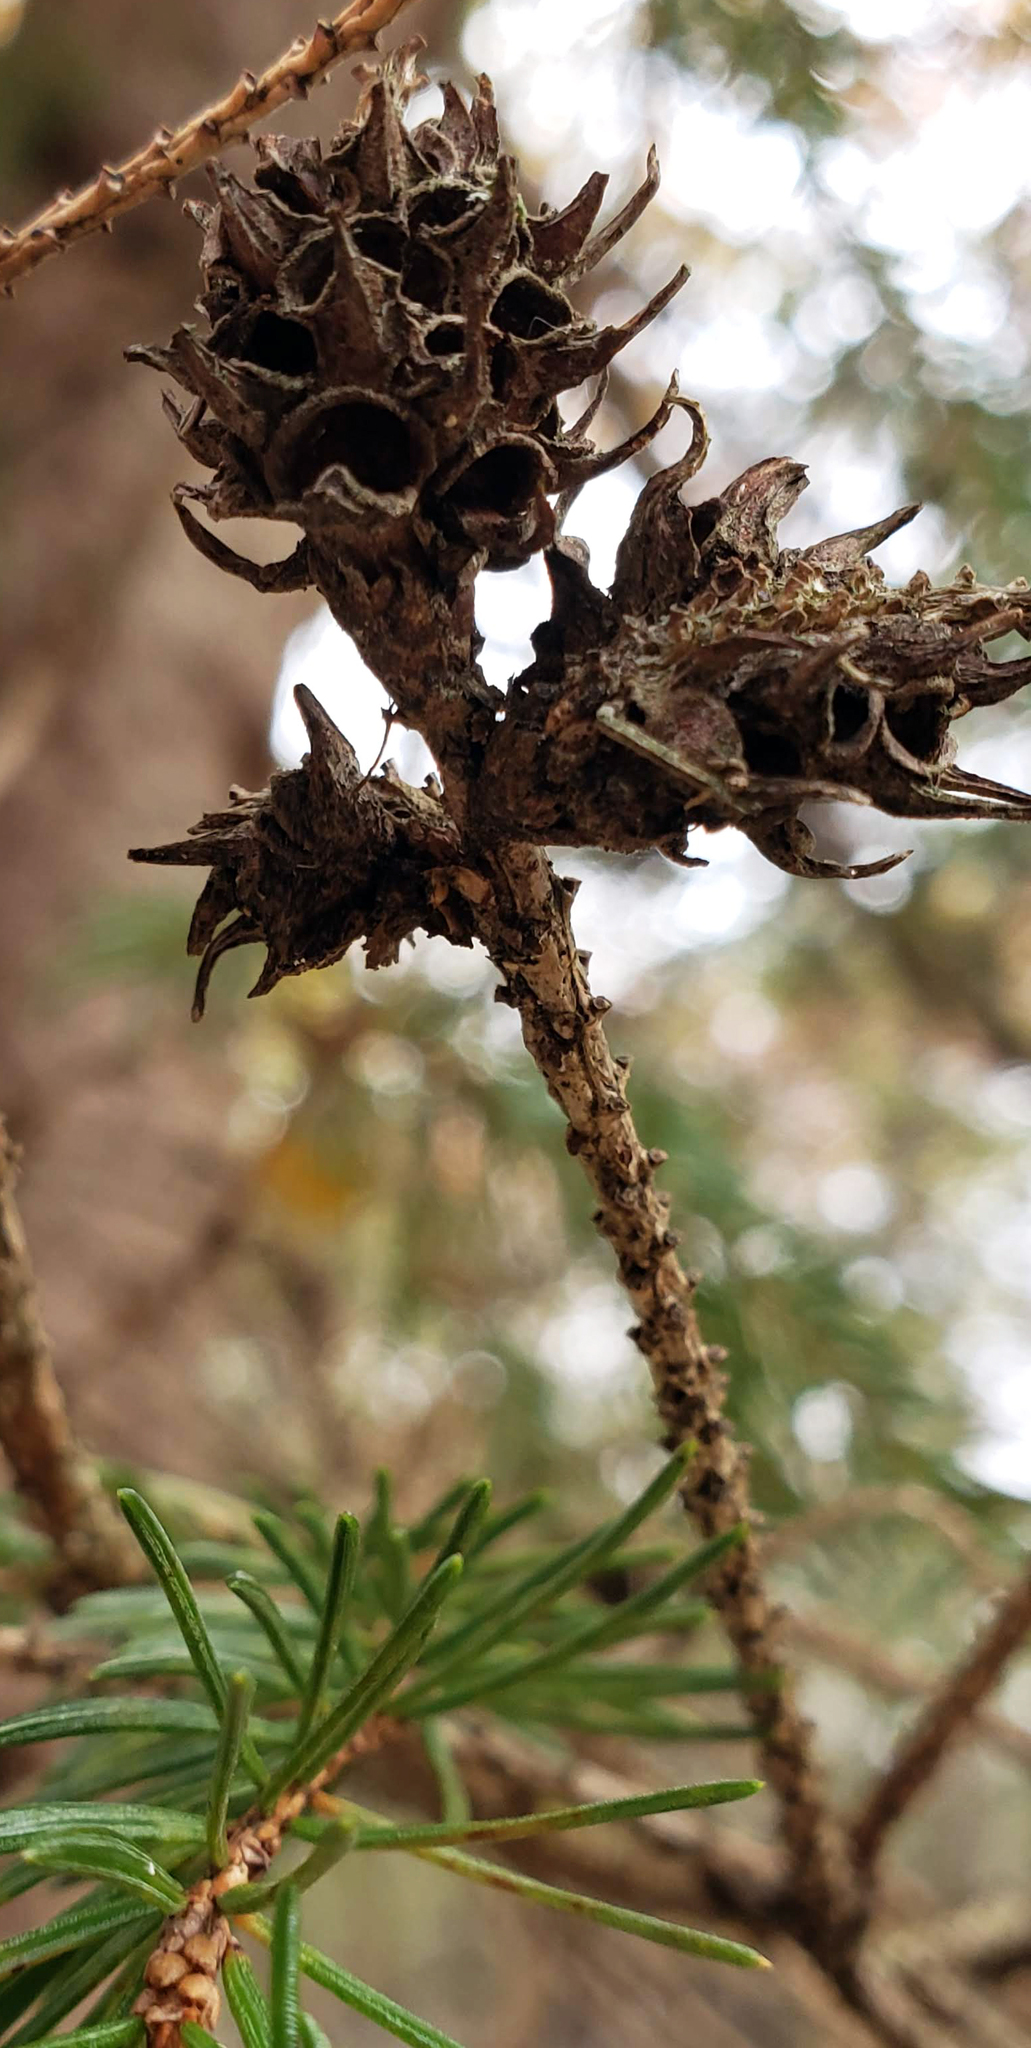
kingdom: Animalia
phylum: Arthropoda
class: Insecta
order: Hemiptera
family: Adelgidae
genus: Adelges
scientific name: Adelges abietis
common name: Eastern spruce gall adelgid
